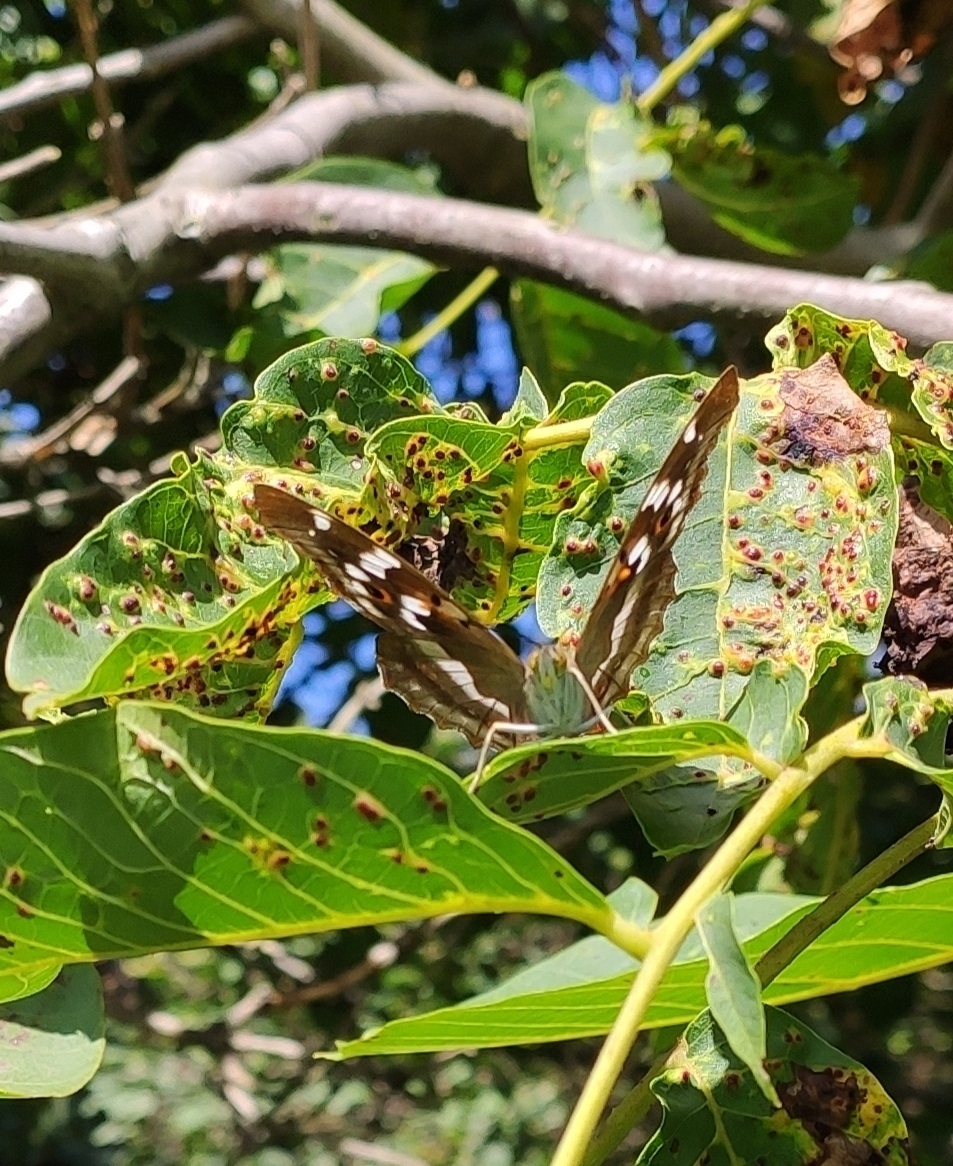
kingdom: Animalia
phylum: Arthropoda
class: Insecta
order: Lepidoptera
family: Nymphalidae
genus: Apatura
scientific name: Apatura ilia
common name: Lesser purple emperor
